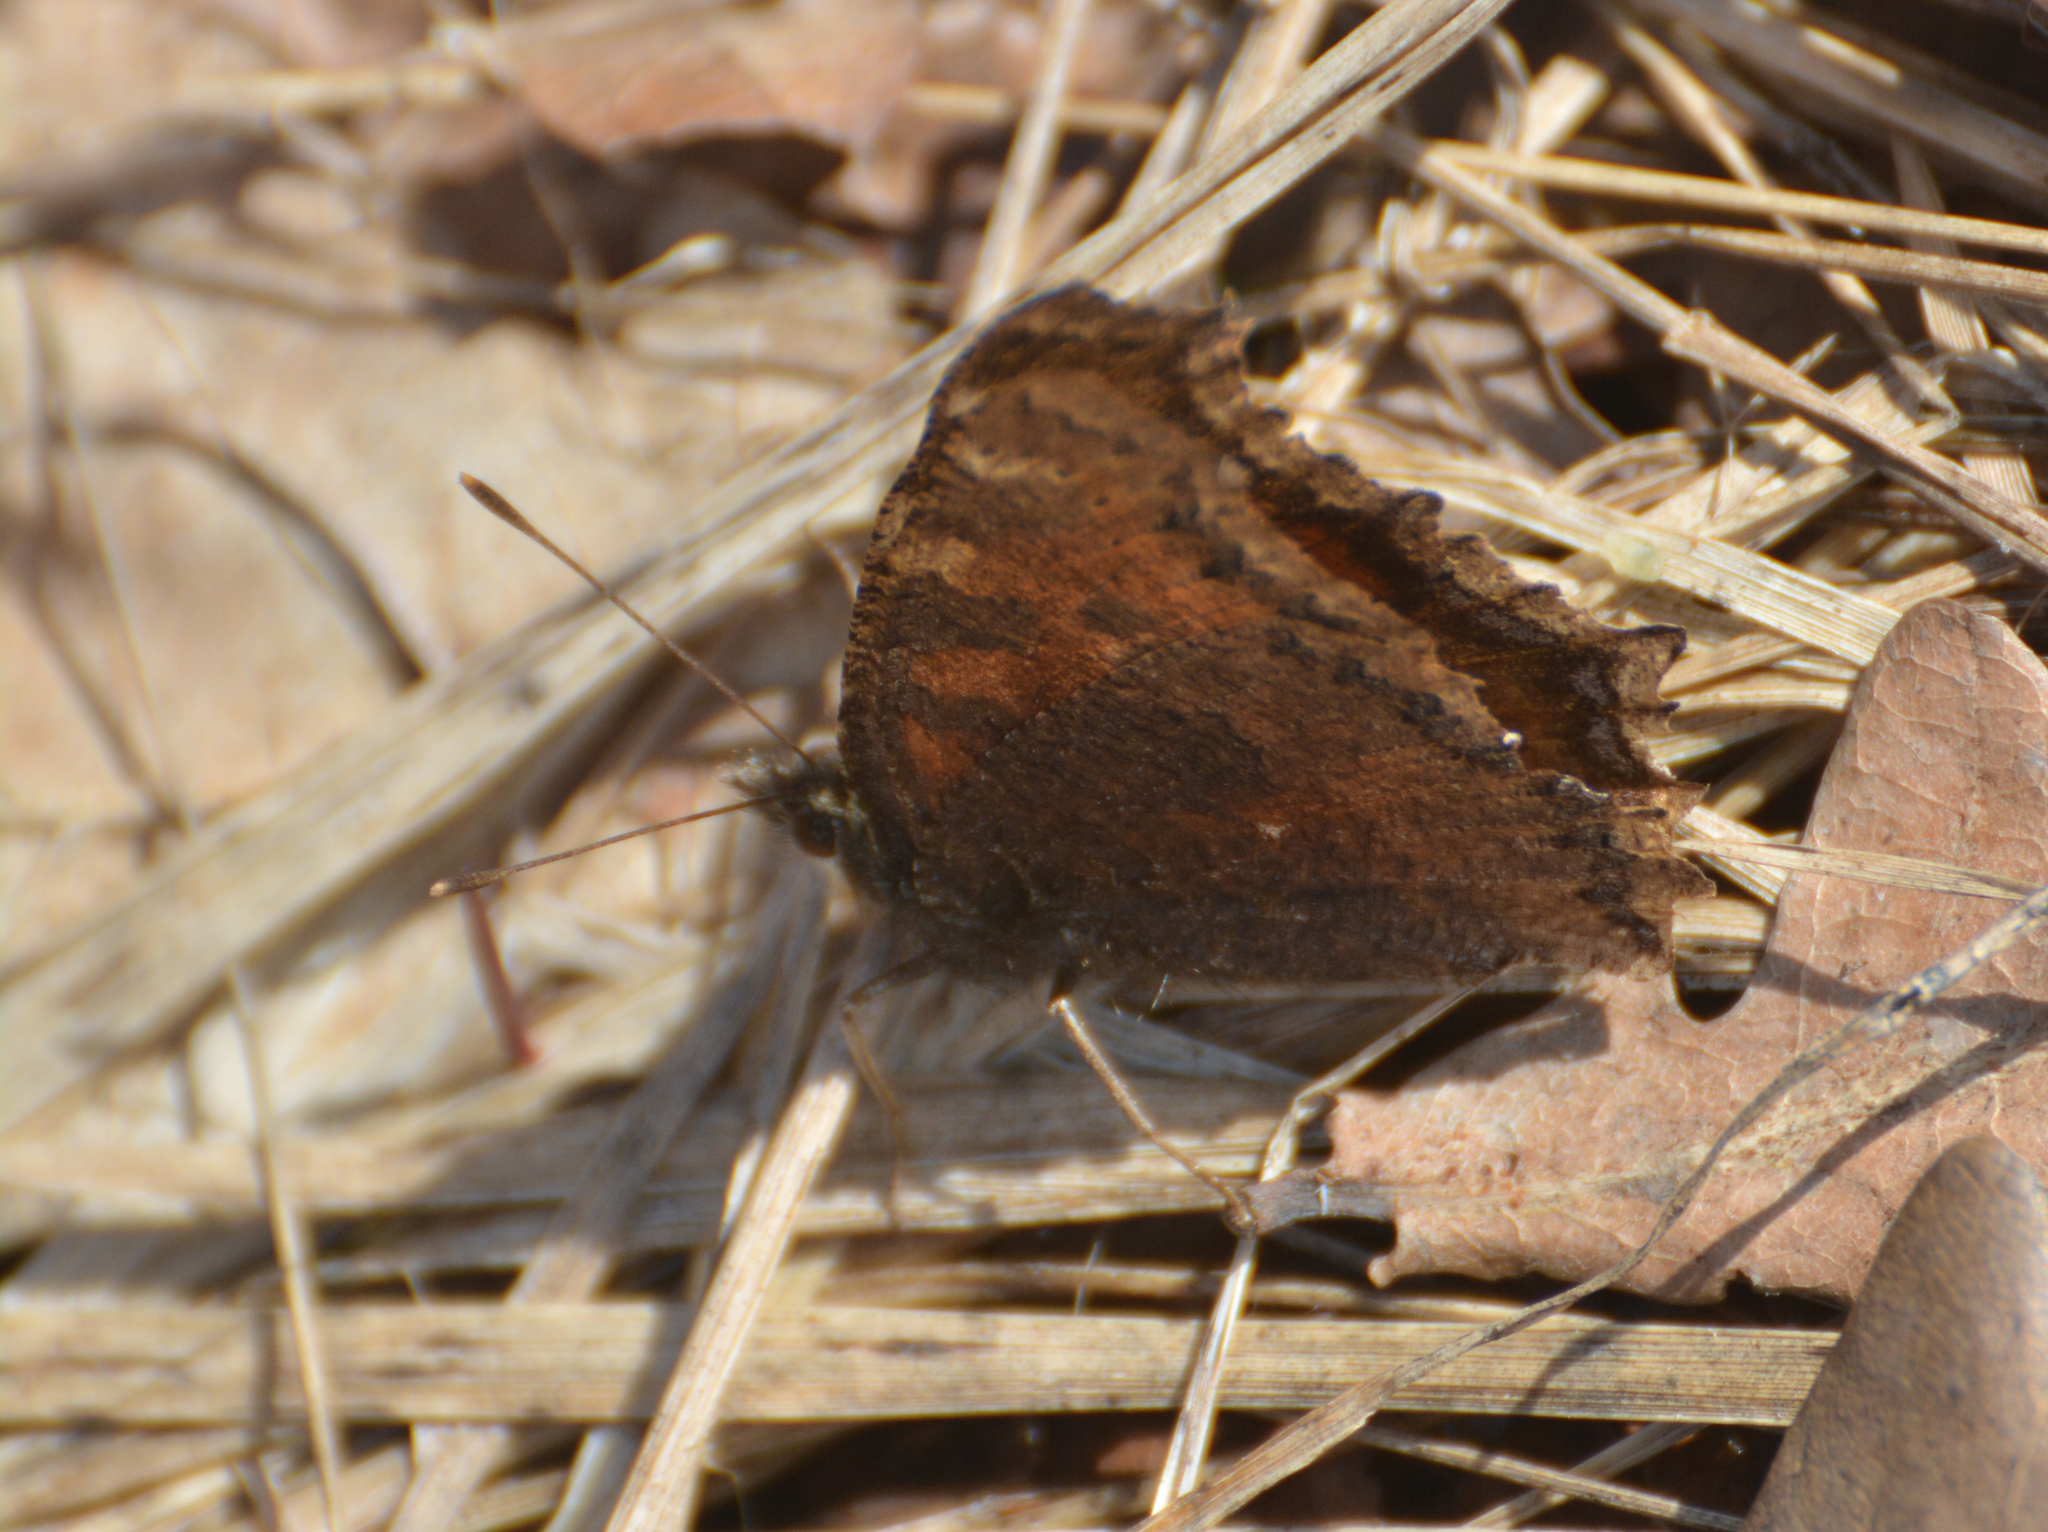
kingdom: Animalia
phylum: Arthropoda
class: Insecta
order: Lepidoptera
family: Nymphalidae
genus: Nymphalis
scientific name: Nymphalis xanthomelas
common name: Scarce tortoiseshell
